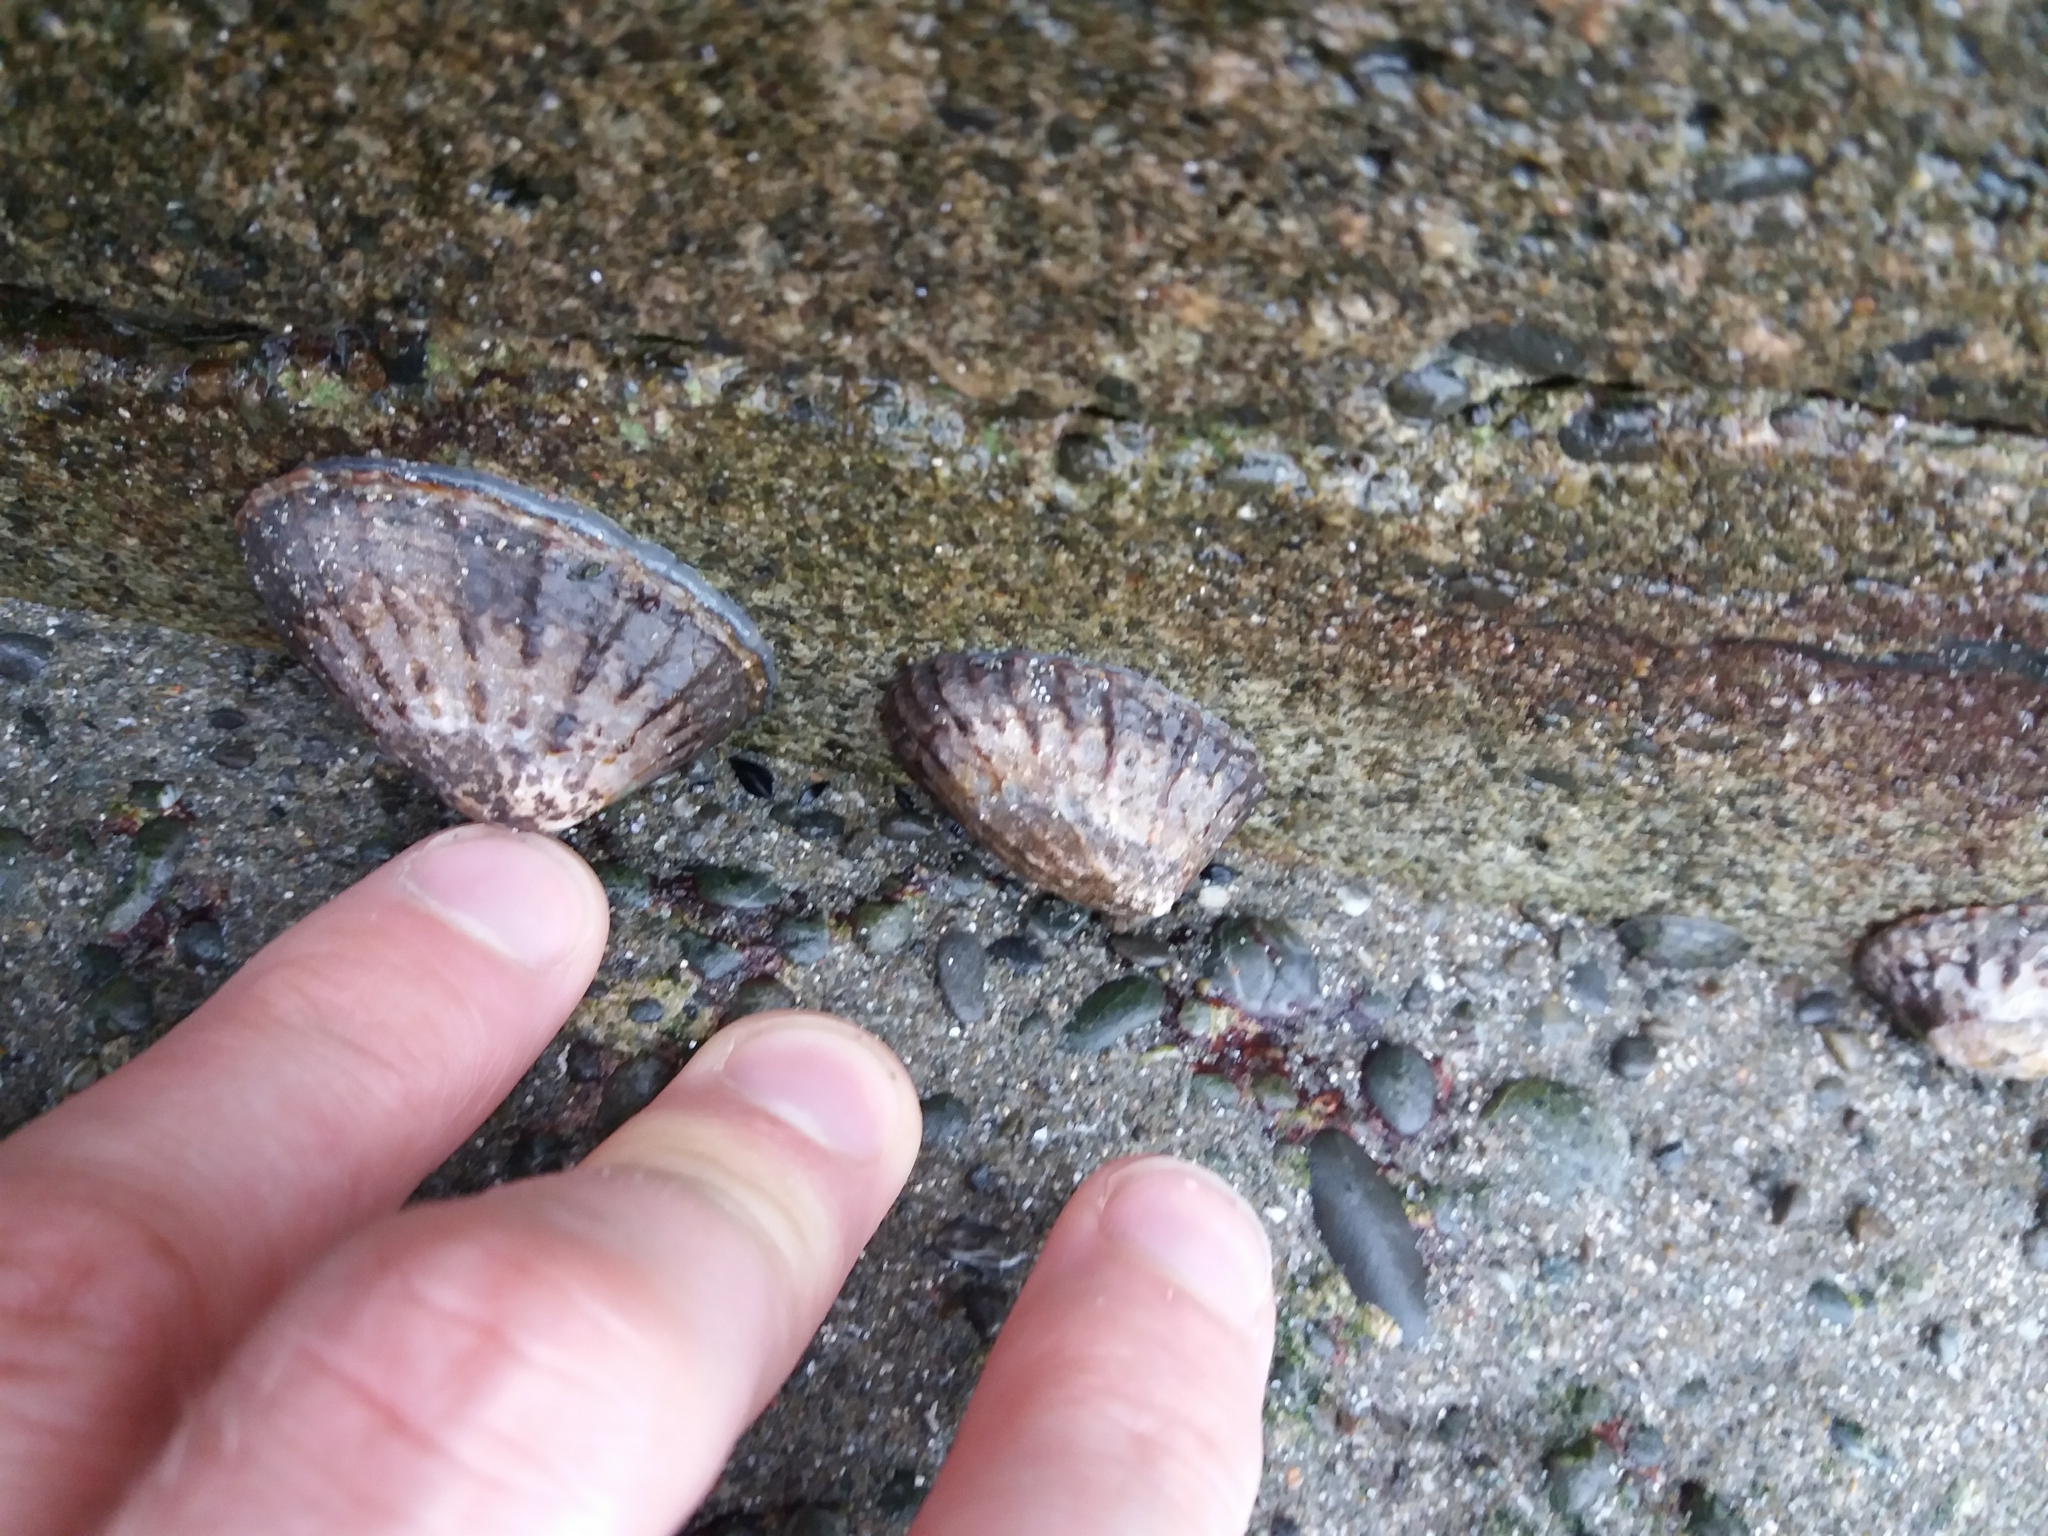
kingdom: Animalia
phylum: Mollusca
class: Gastropoda
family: Nacellidae
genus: Cellana
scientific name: Cellana radians
